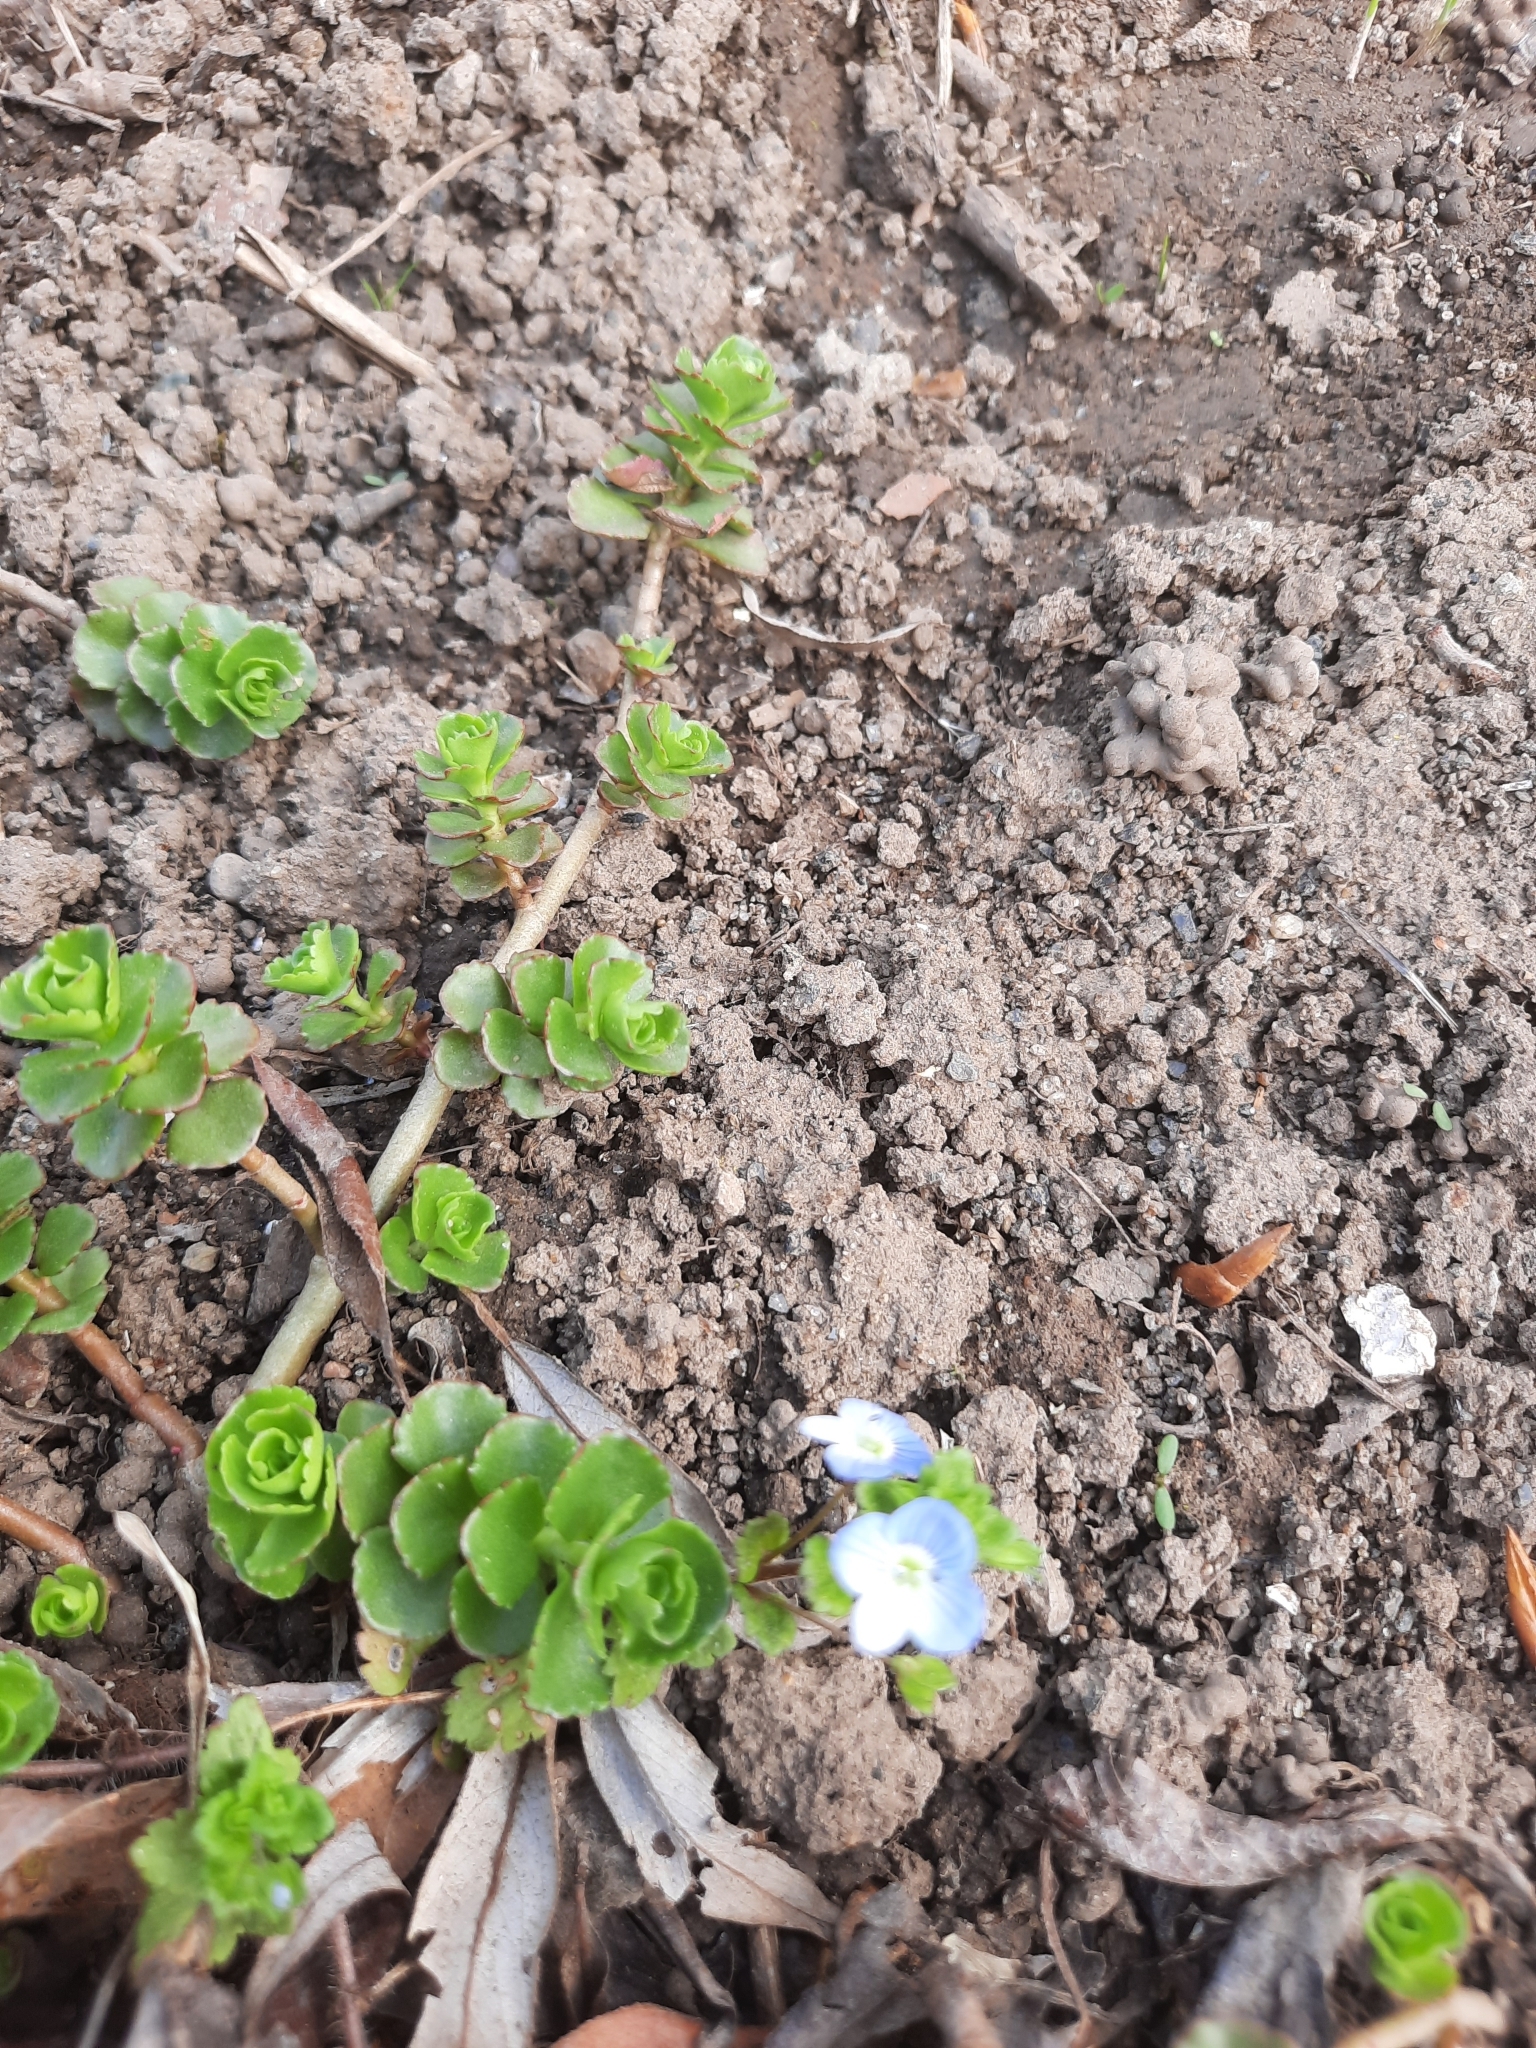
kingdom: Plantae
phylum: Tracheophyta
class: Magnoliopsida
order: Lamiales
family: Plantaginaceae
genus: Veronica
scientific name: Veronica persica
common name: Common field-speedwell
